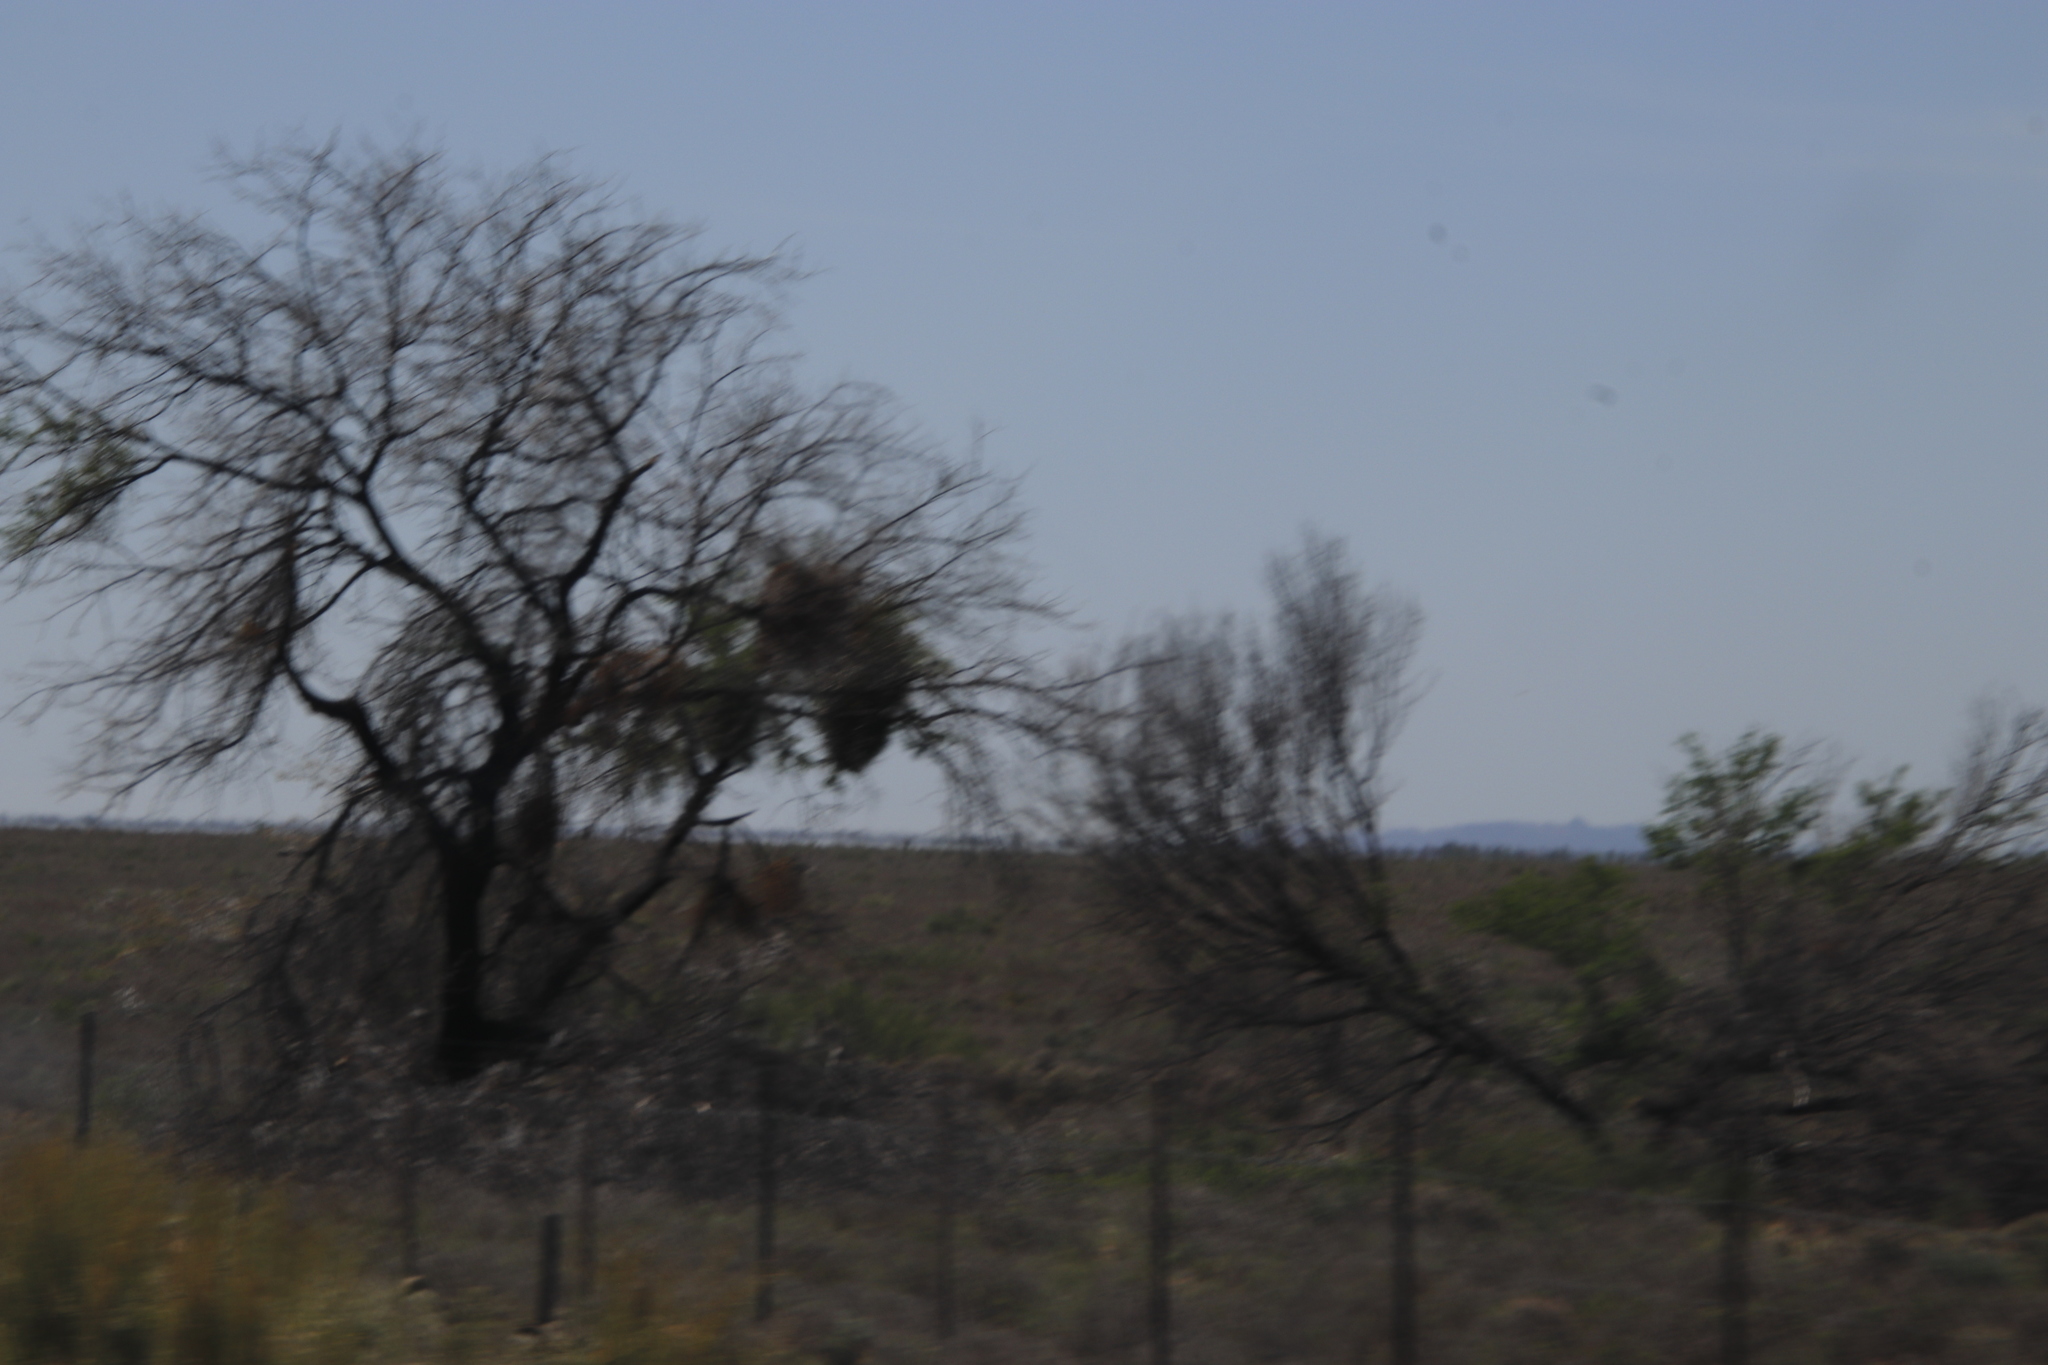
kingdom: Plantae
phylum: Tracheophyta
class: Magnoliopsida
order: Fabales
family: Fabaceae
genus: Vachellia
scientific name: Vachellia karroo
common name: Sweet thorn
